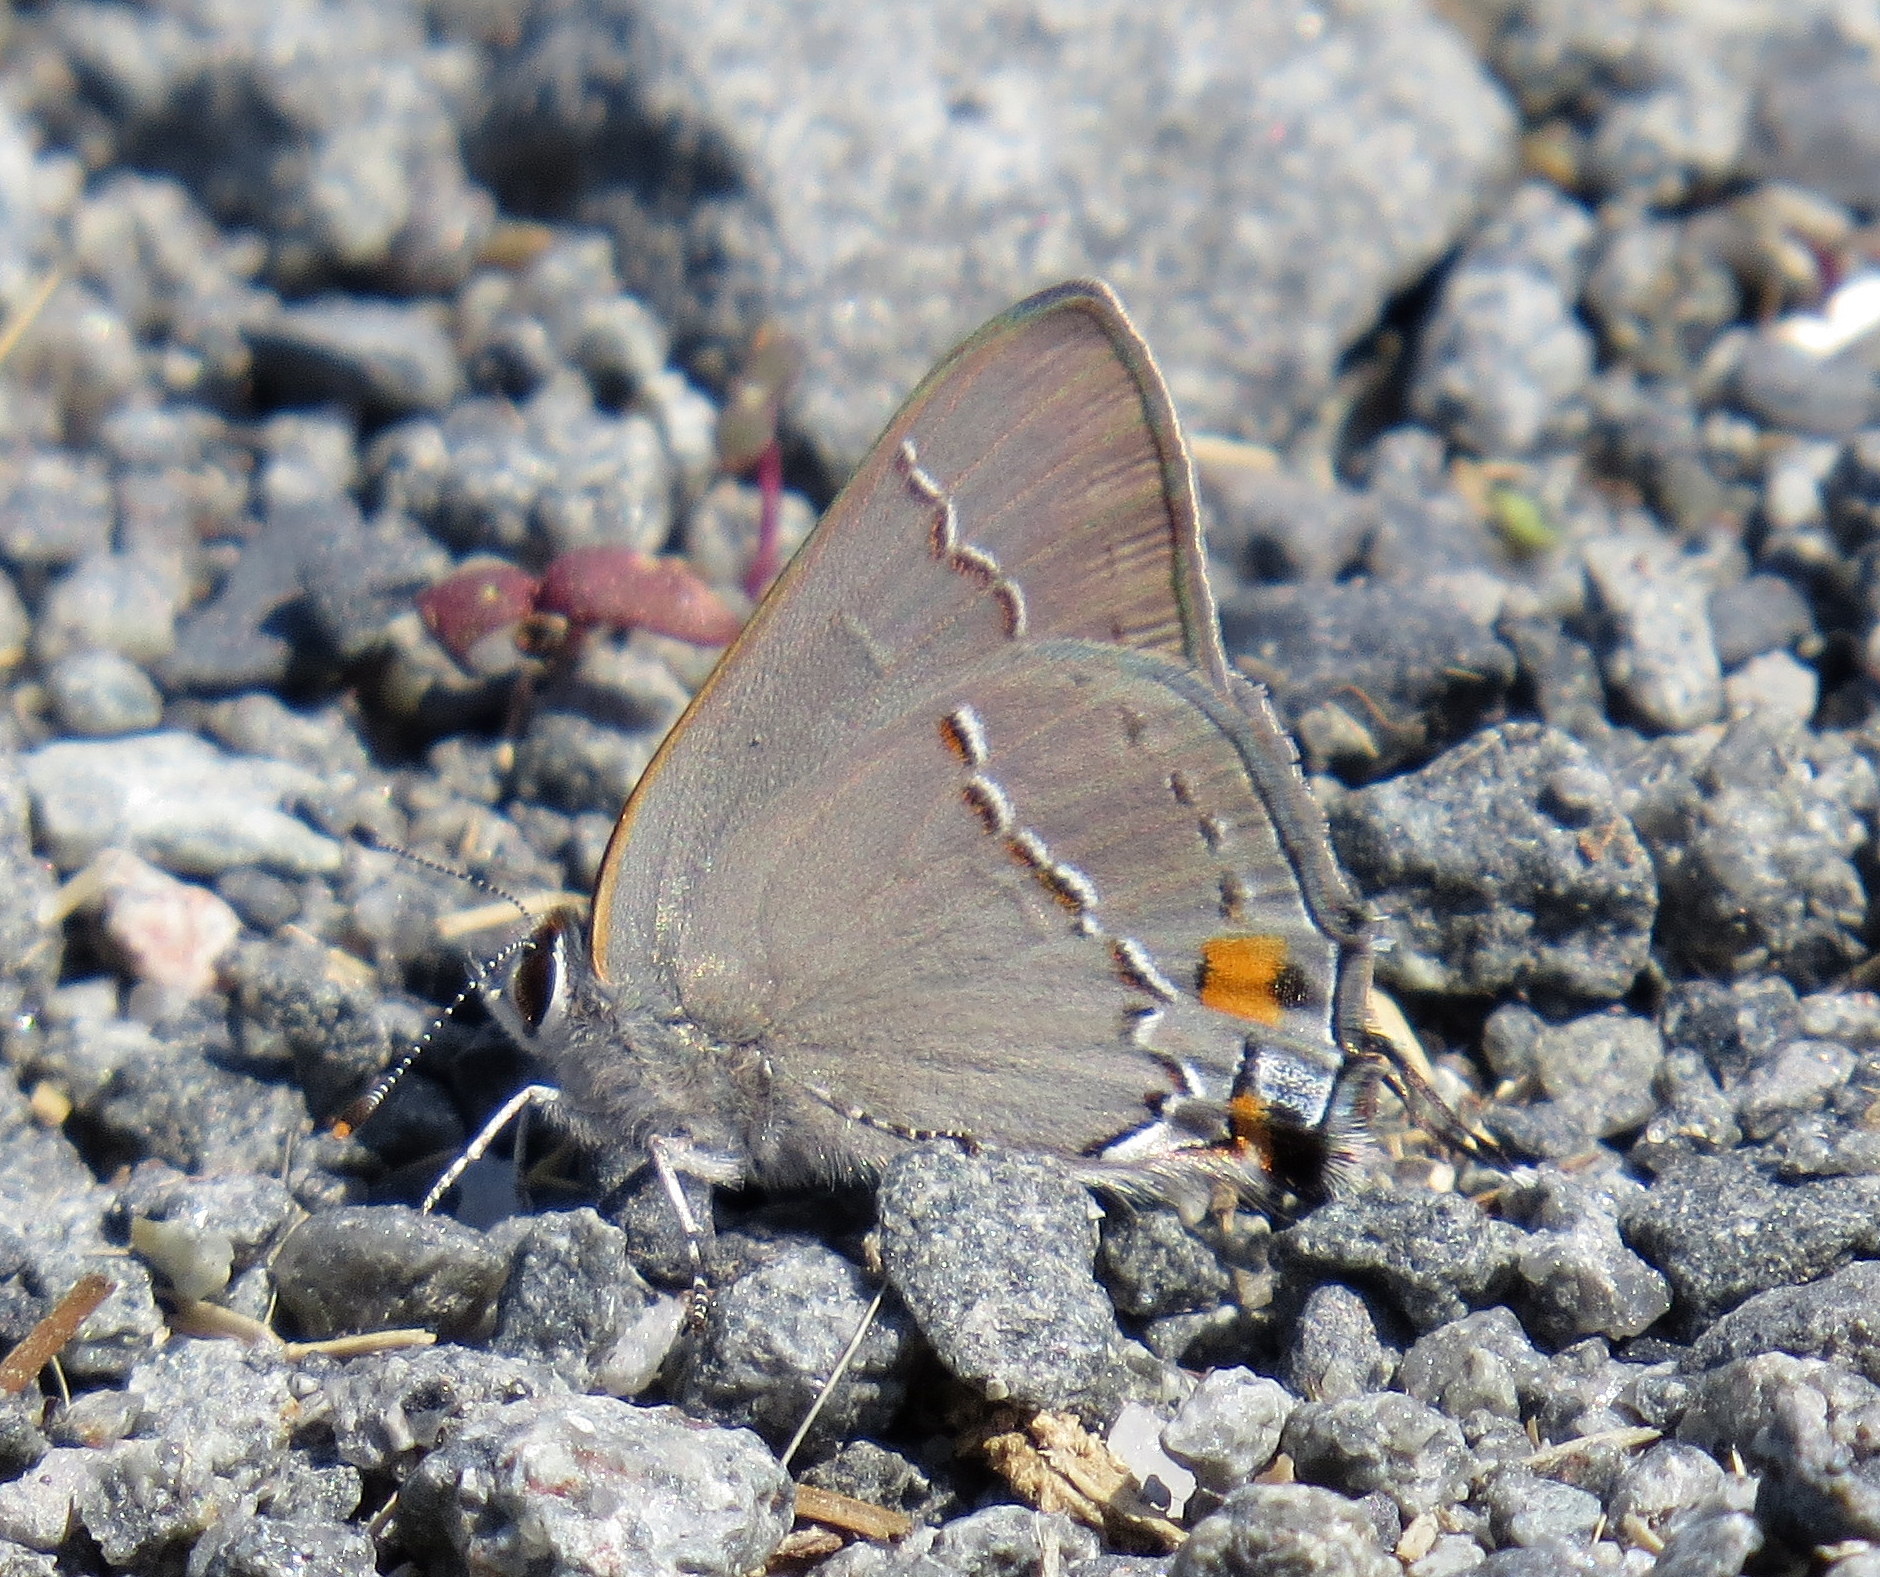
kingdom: Animalia
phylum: Arthropoda
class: Insecta
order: Lepidoptera
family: Lycaenidae
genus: Strymon
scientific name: Strymon melinus
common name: Gray hairstreak
